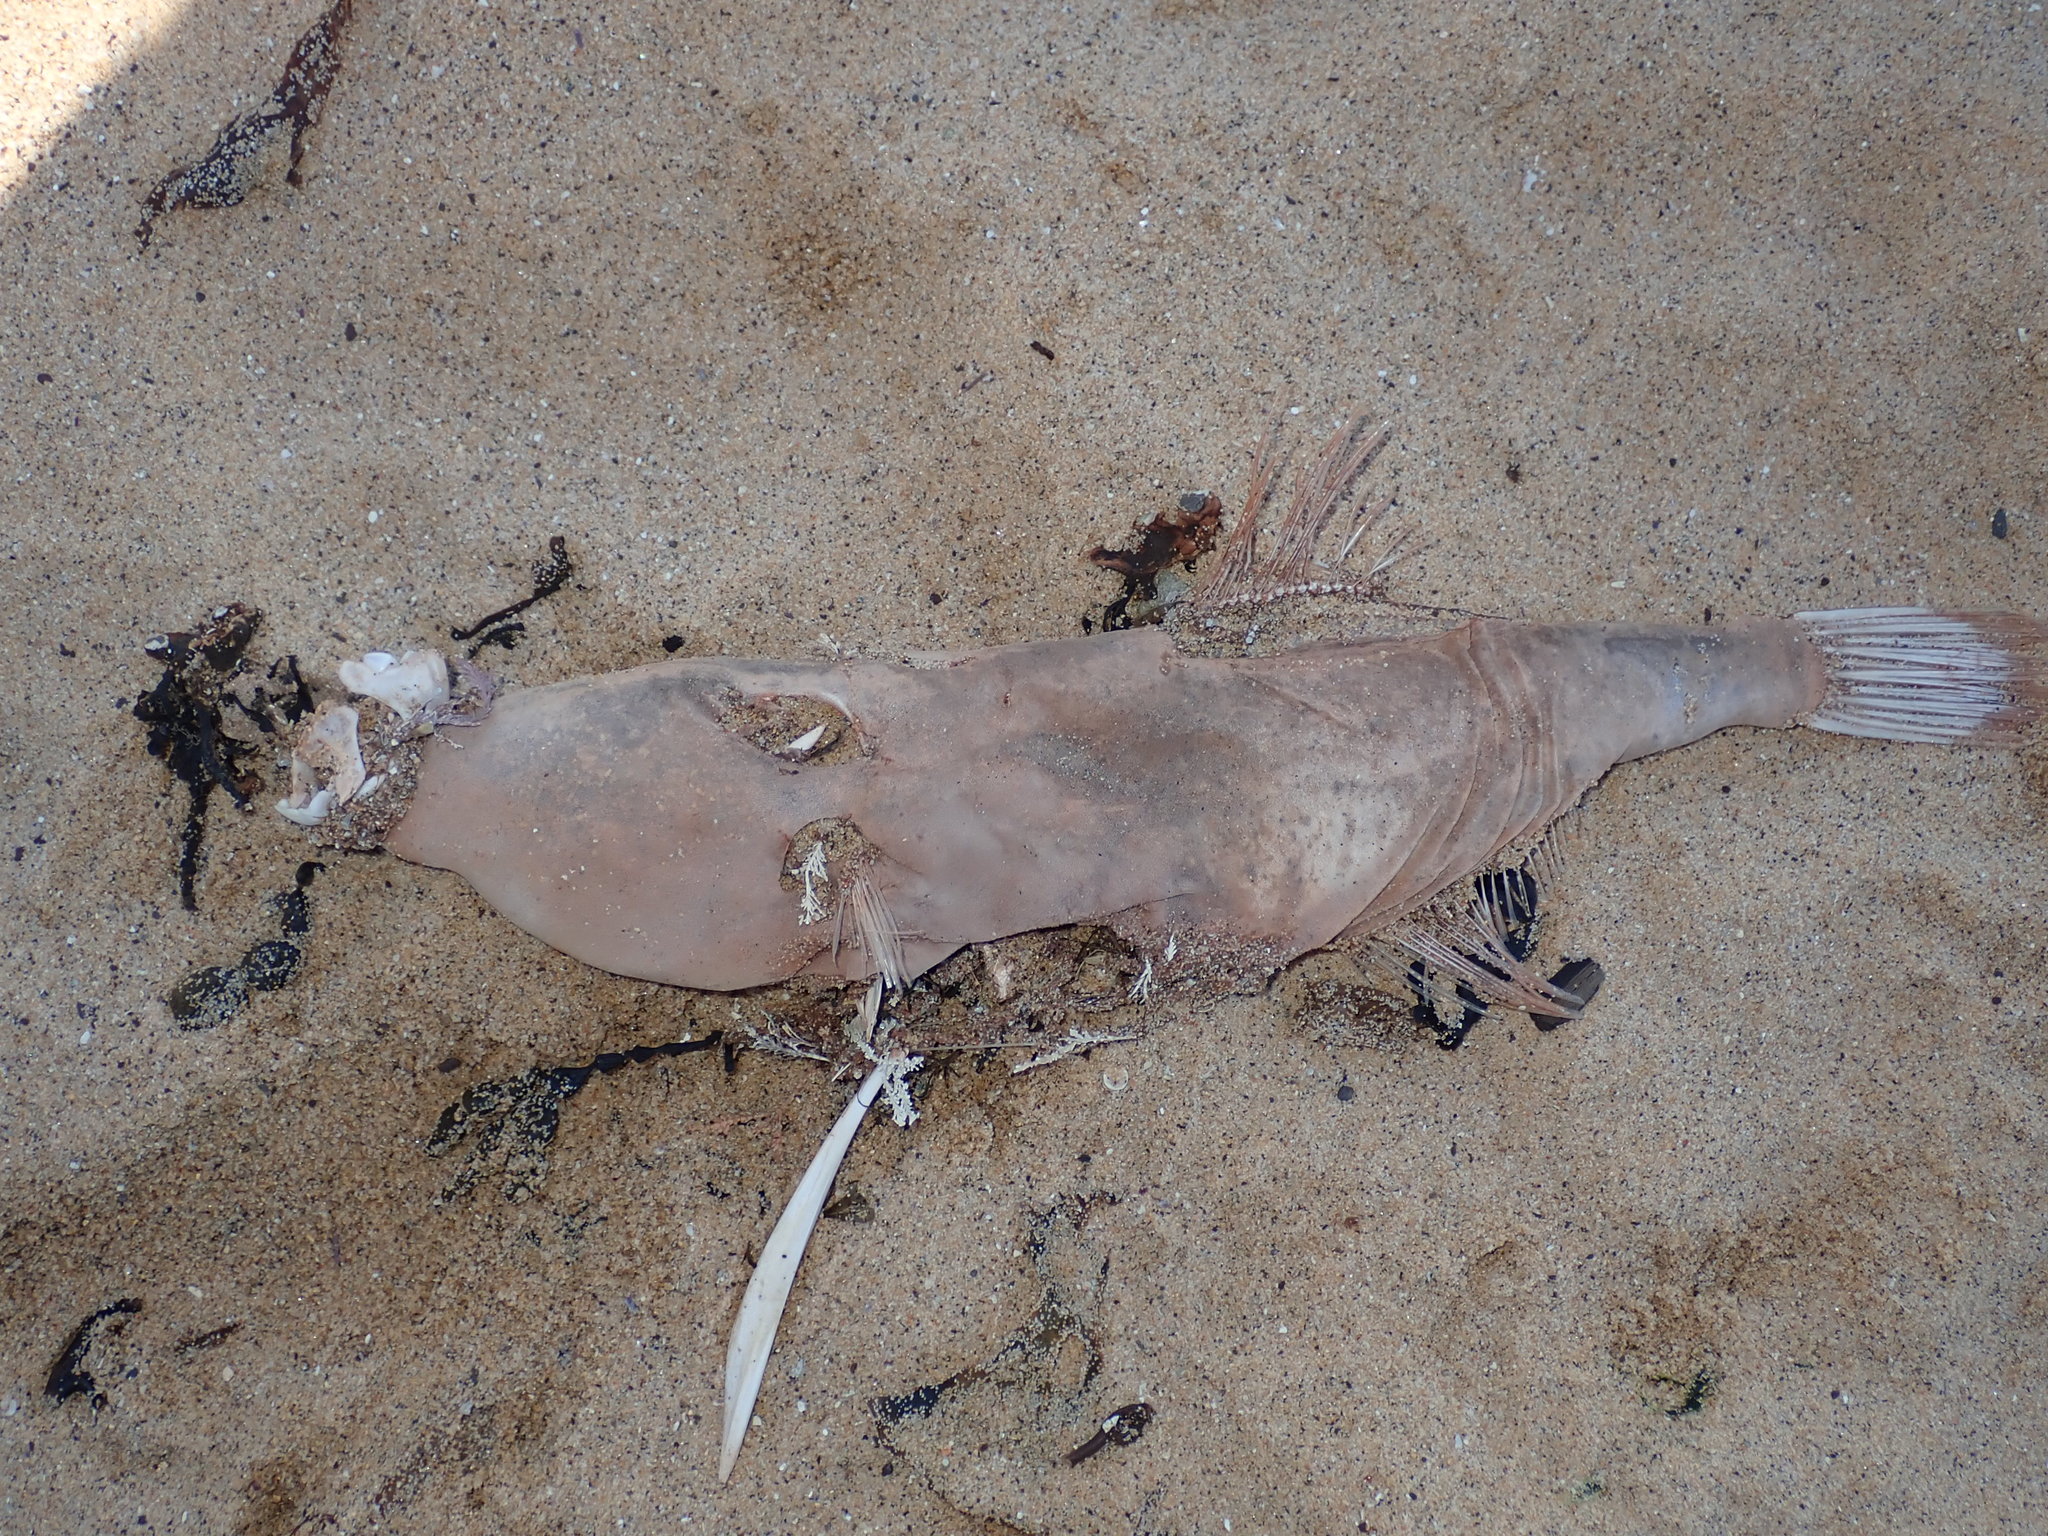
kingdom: Animalia
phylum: Chordata
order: Tetraodontiformes
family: Monacanthidae
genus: Aluterus
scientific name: Aluterus monoceros
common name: Batfish
